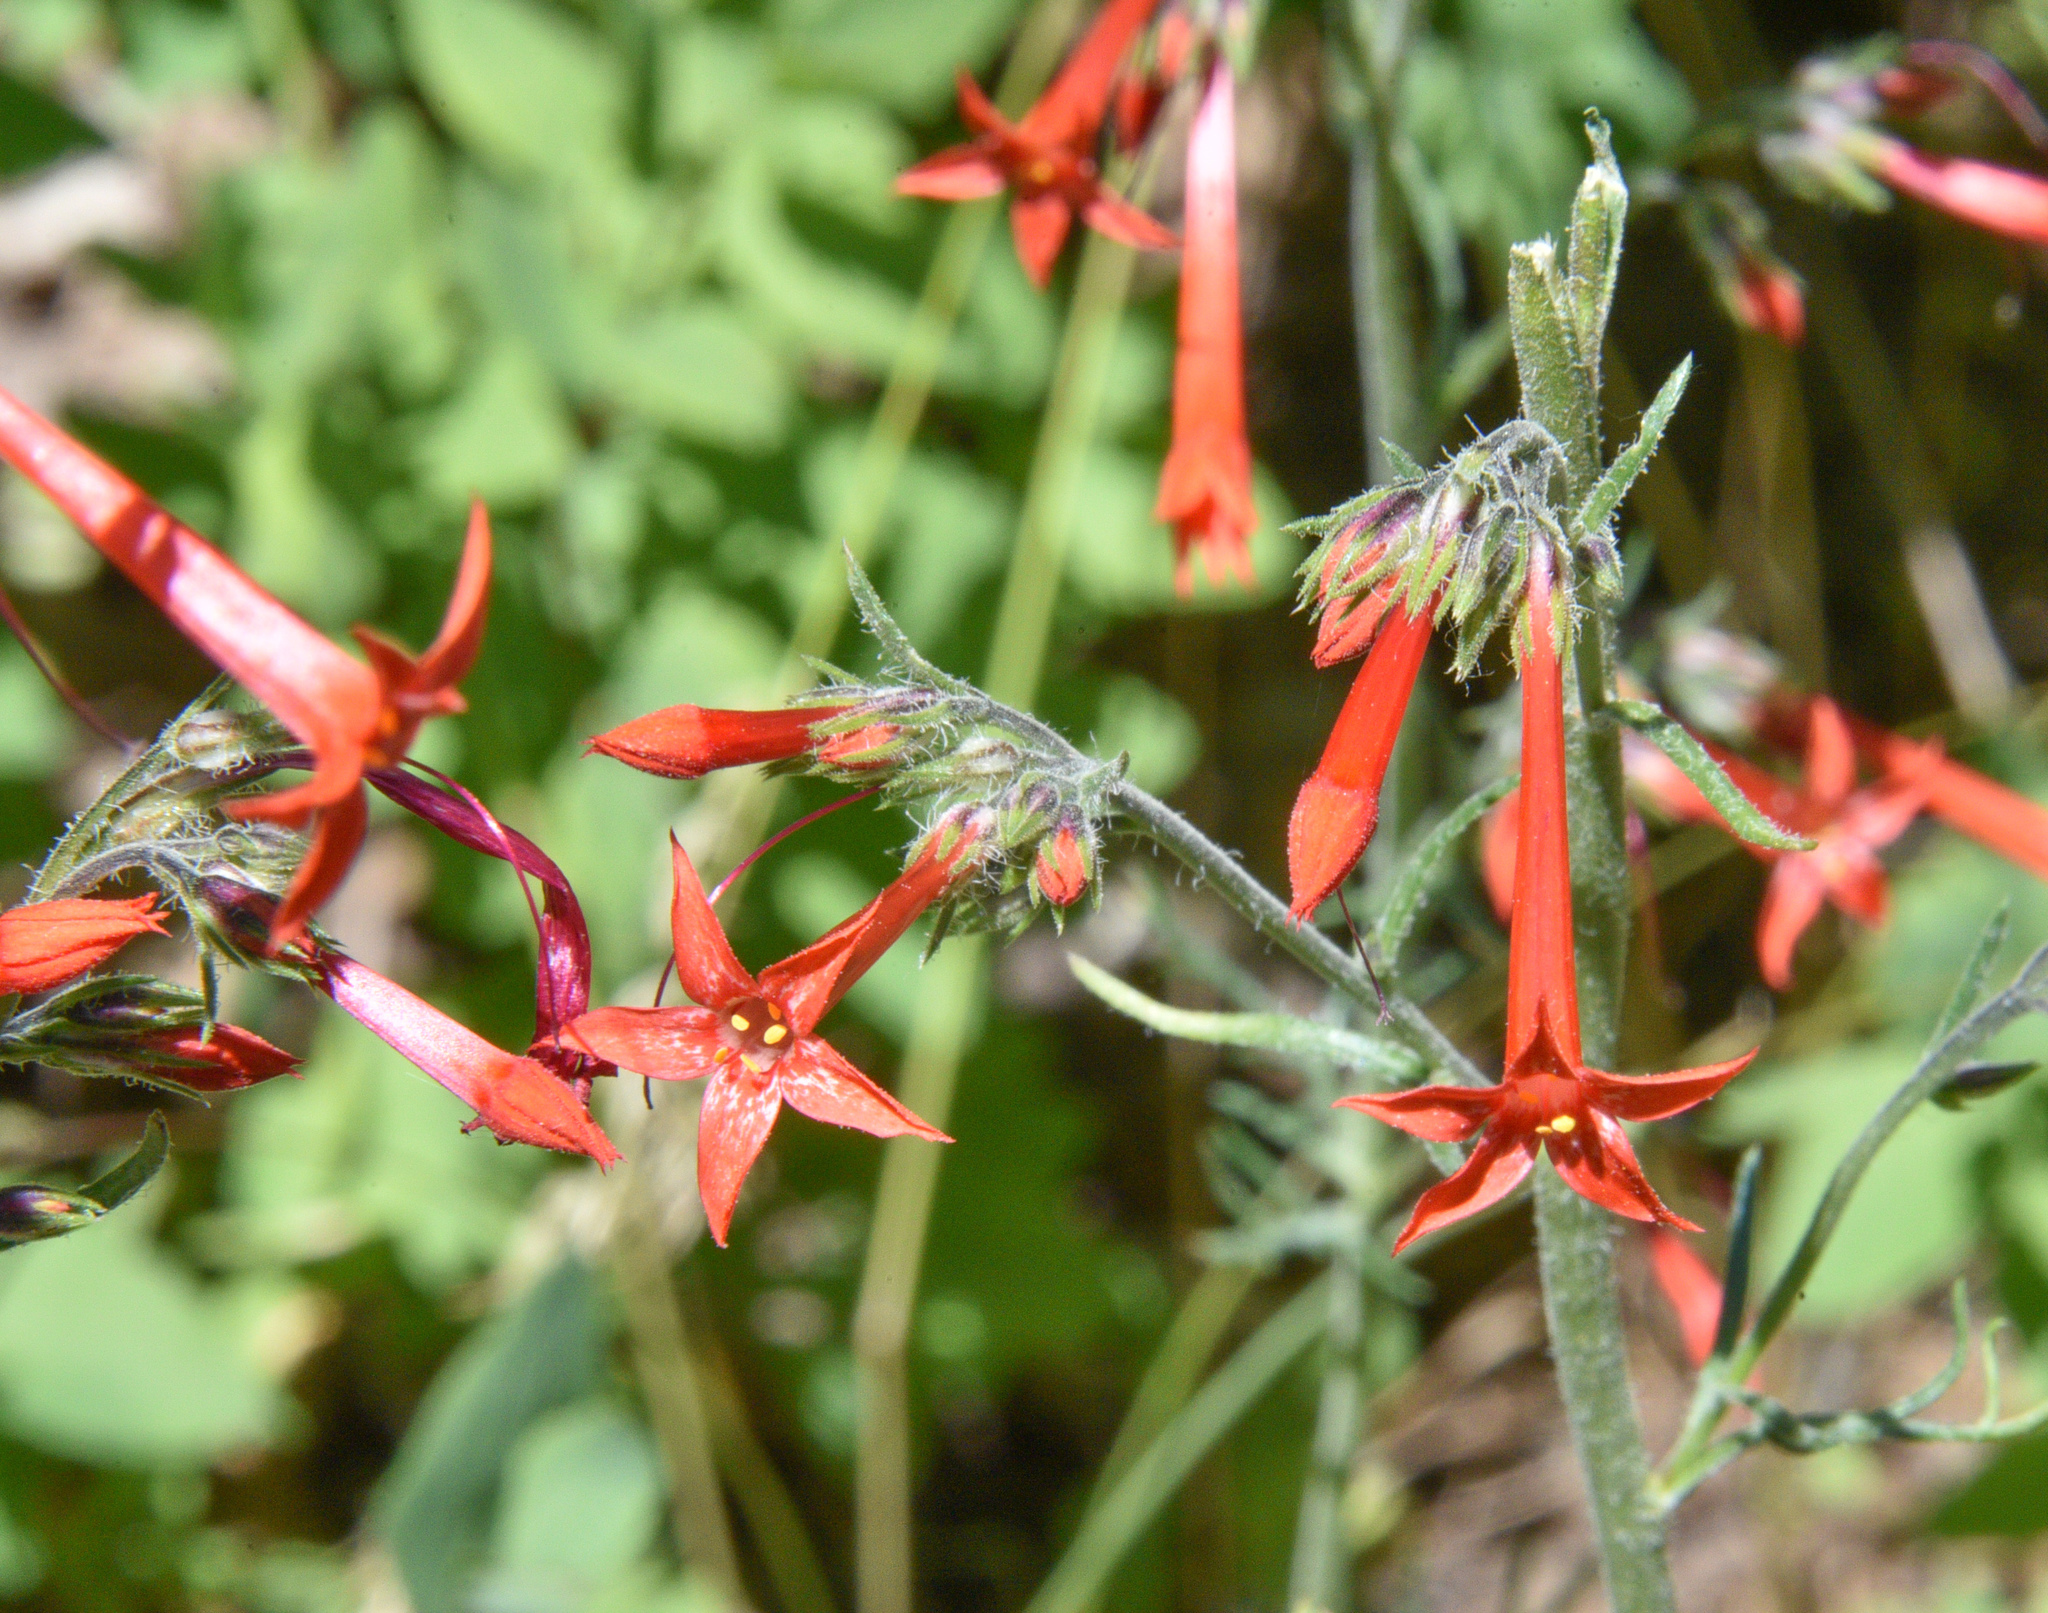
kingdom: Plantae
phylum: Tracheophyta
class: Magnoliopsida
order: Ericales
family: Polemoniaceae
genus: Ipomopsis
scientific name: Ipomopsis aggregata
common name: Scarlet gilia
